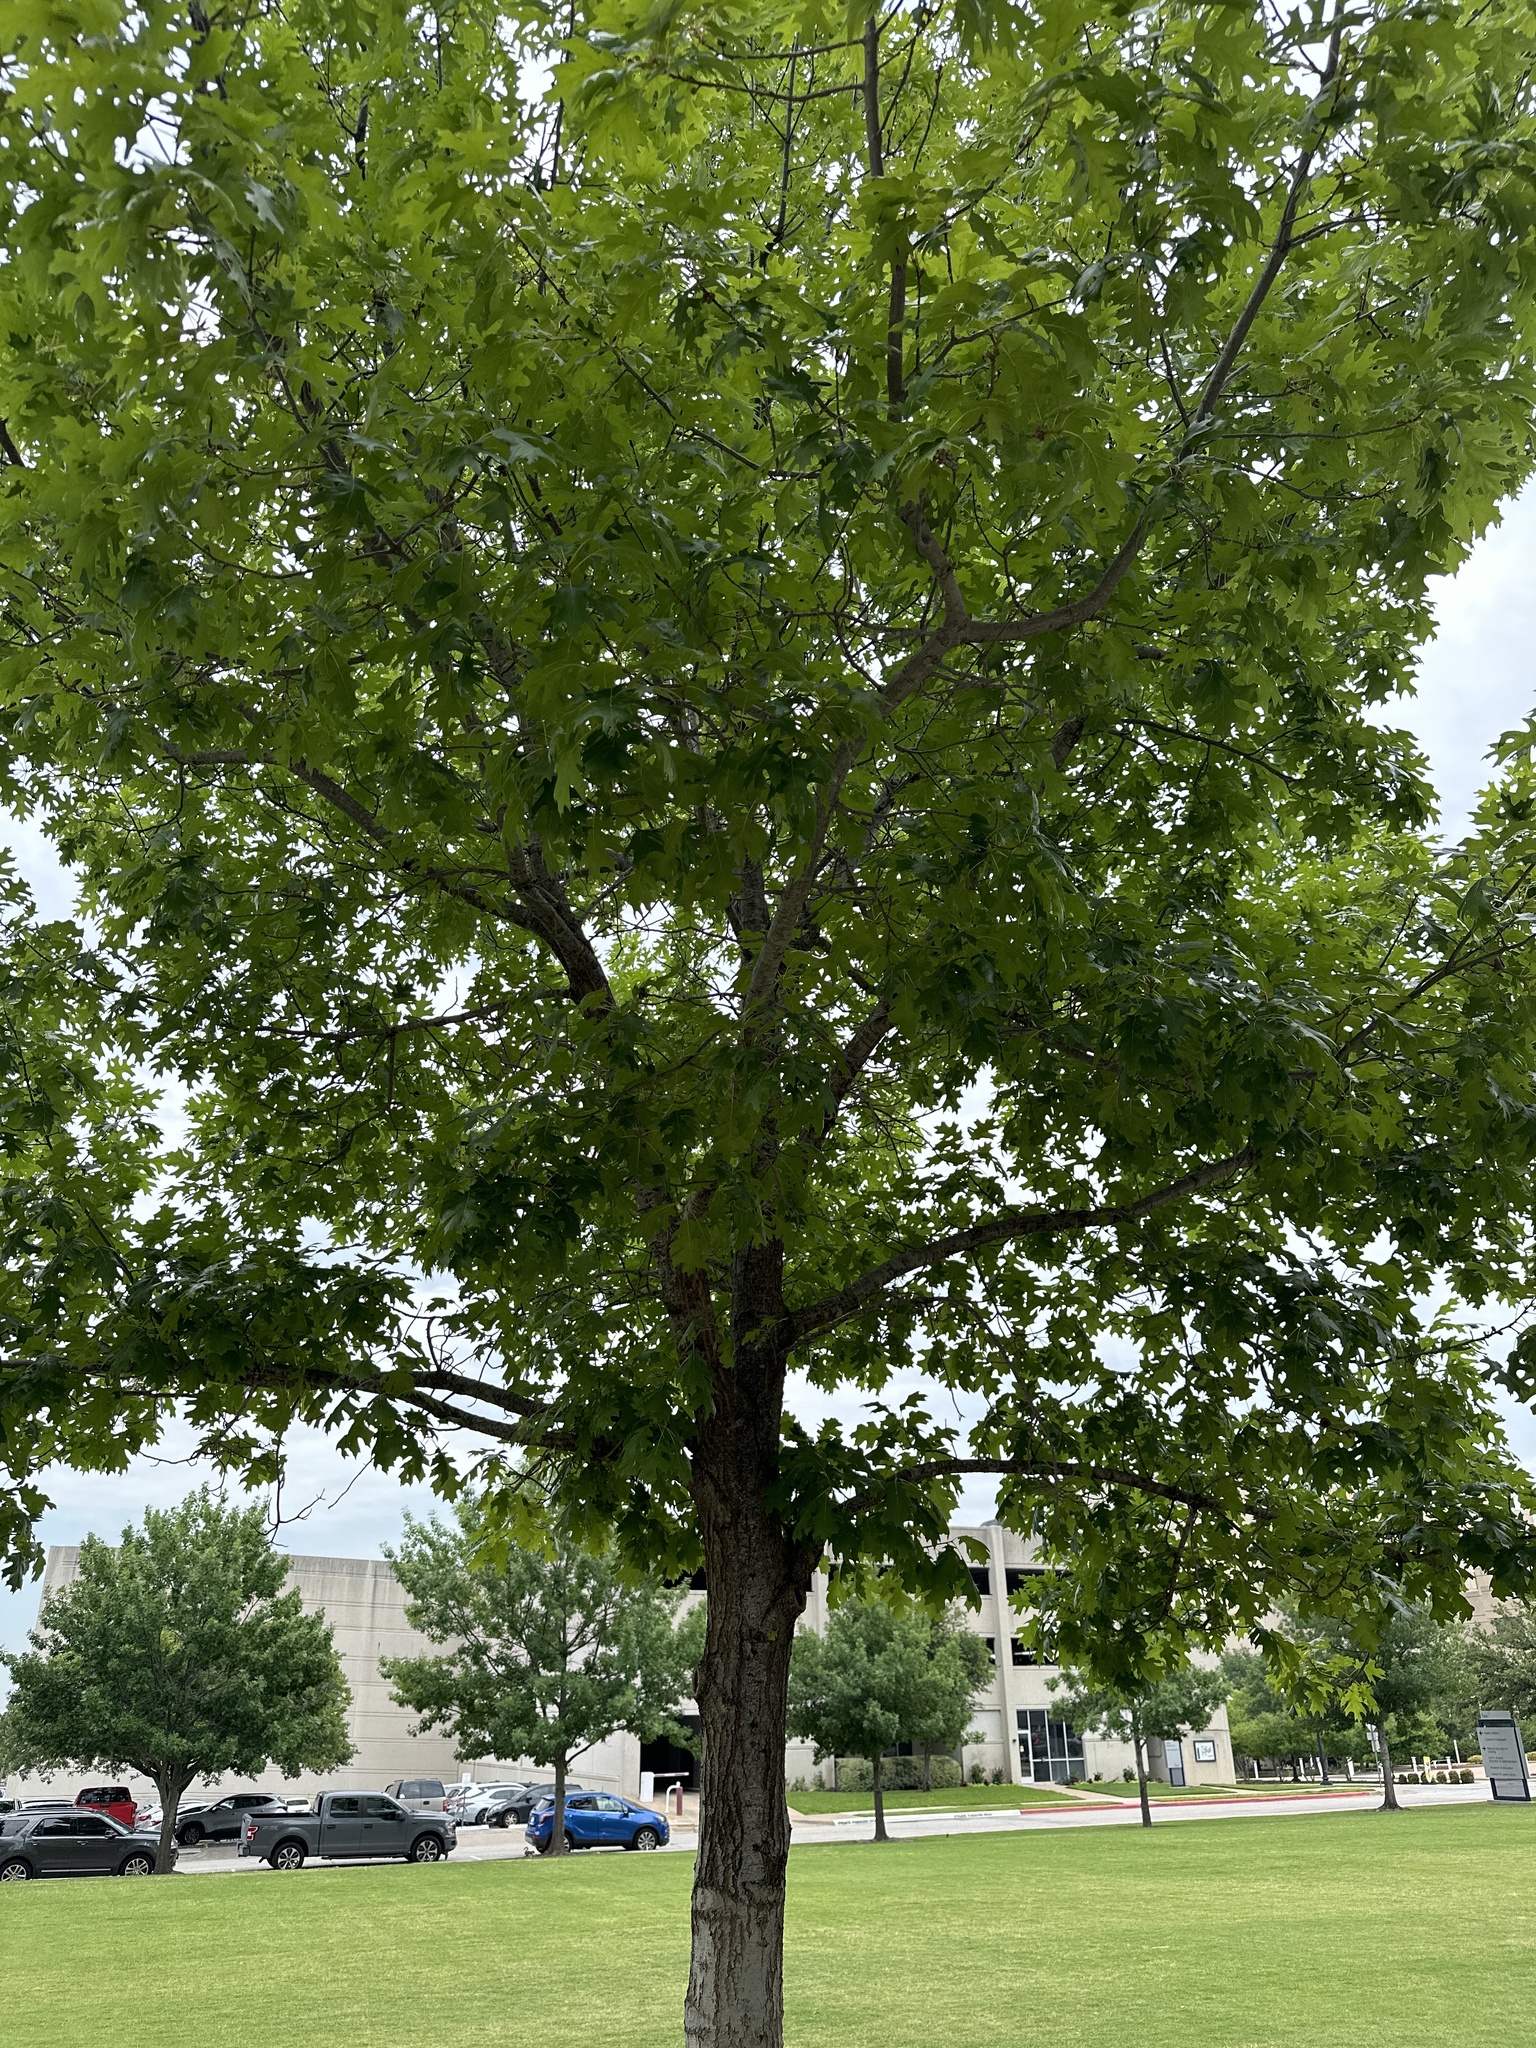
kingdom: Plantae
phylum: Tracheophyta
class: Magnoliopsida
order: Fagales
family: Fagaceae
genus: Quercus
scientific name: Quercus muehlenbergii
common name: Chinkapin oak
